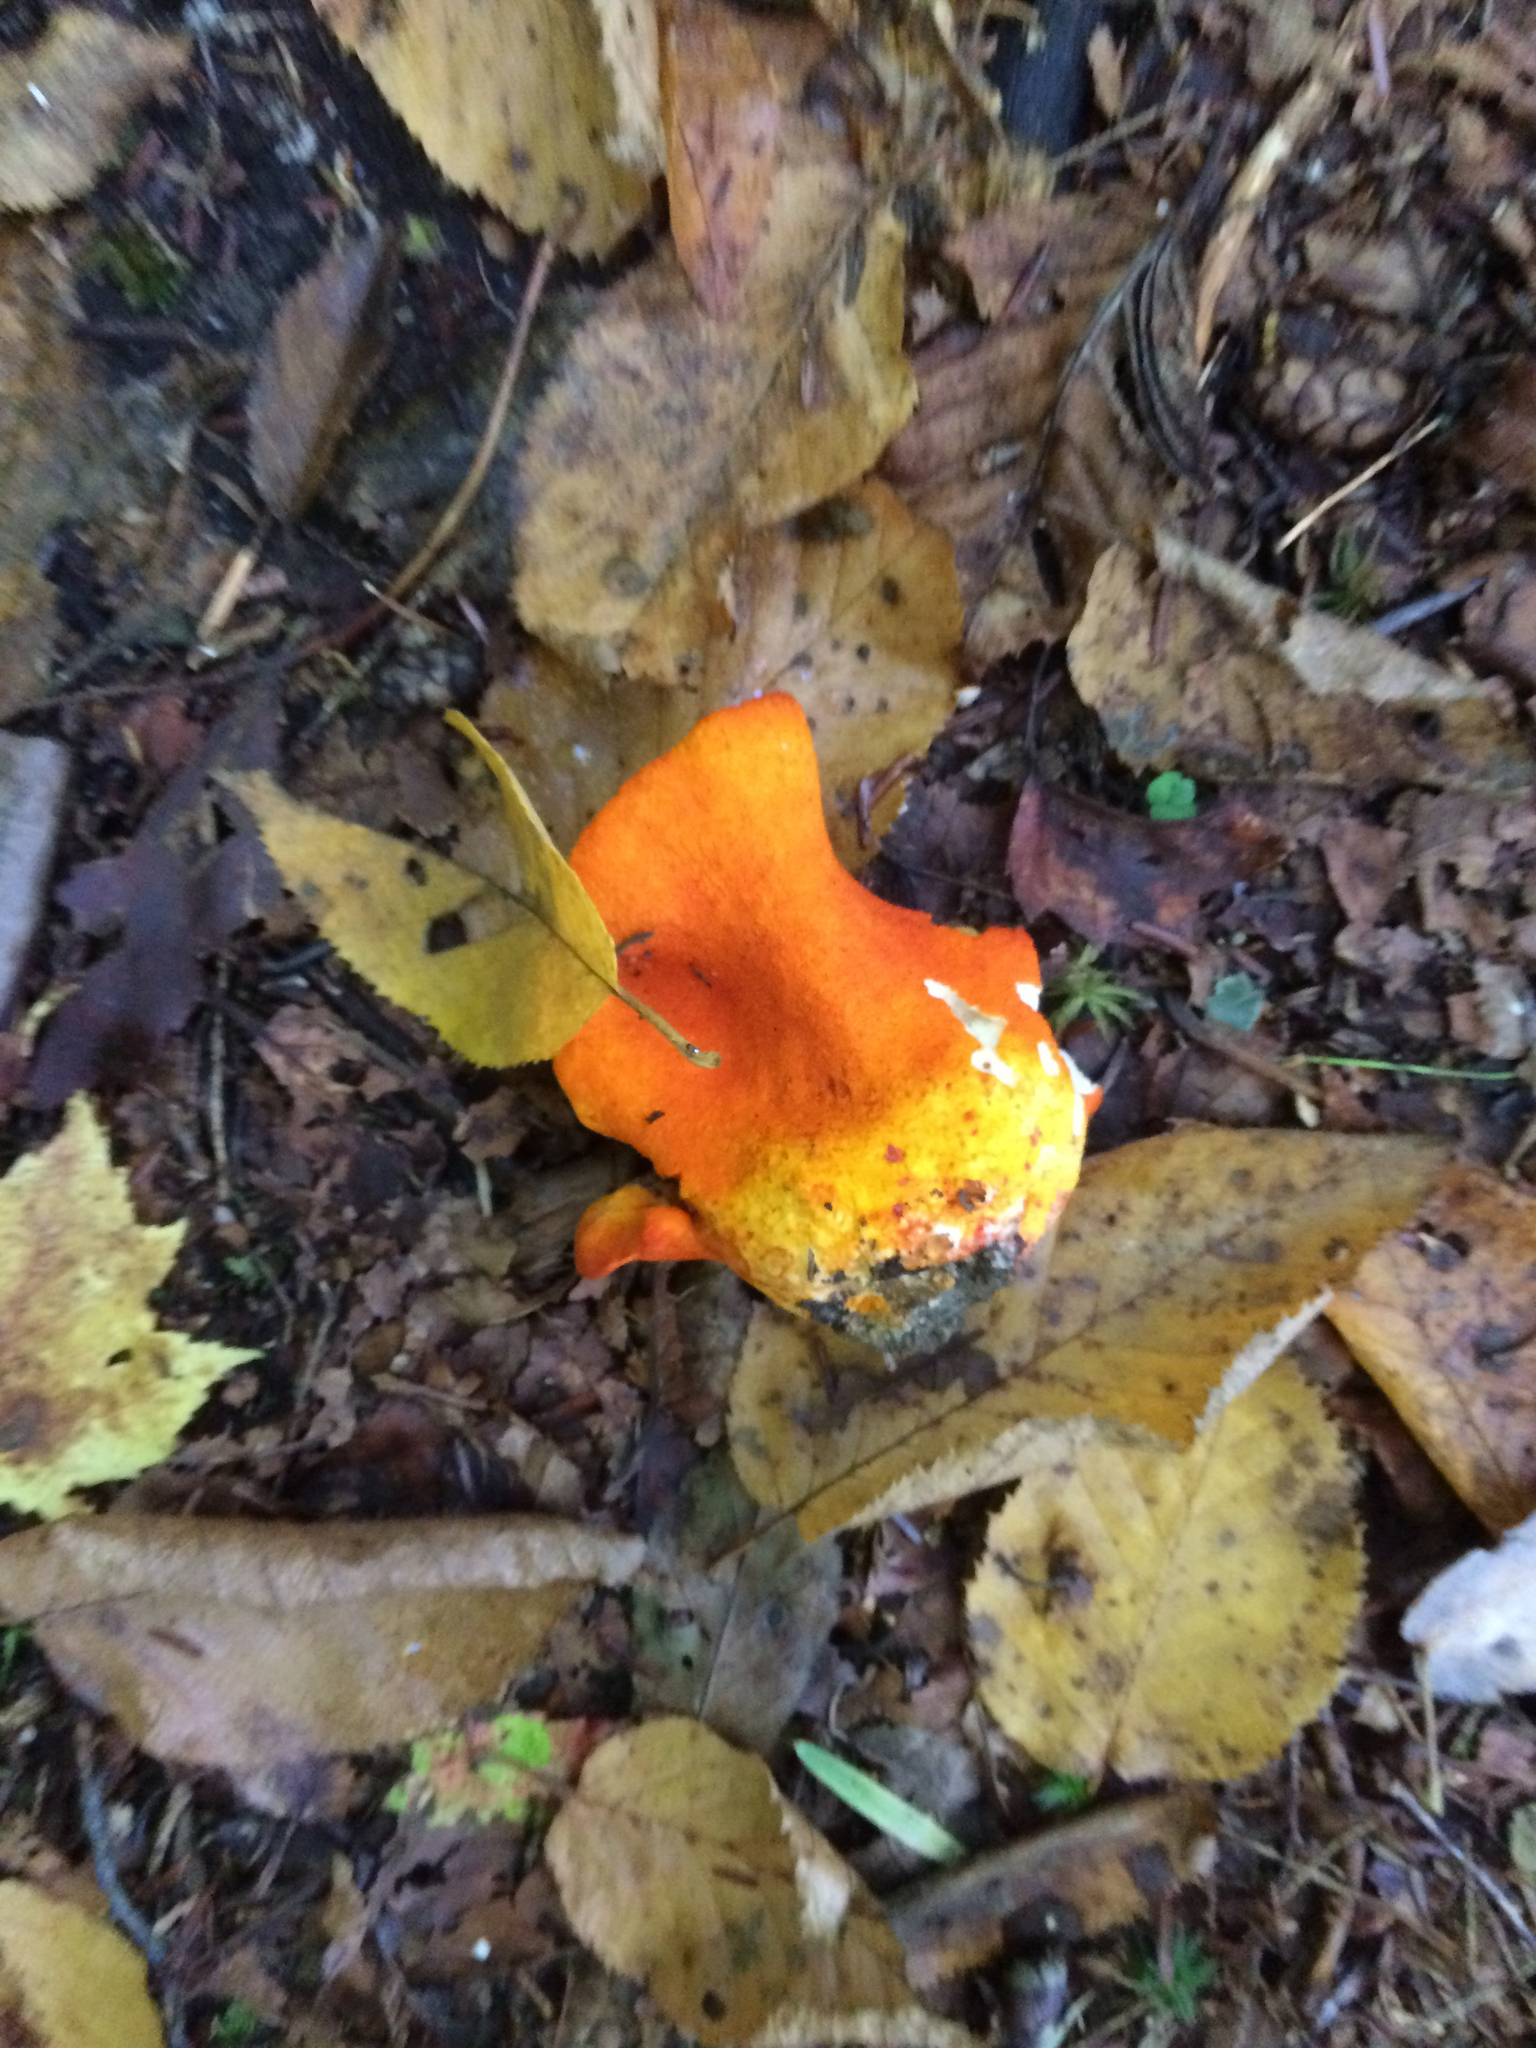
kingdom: Fungi
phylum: Ascomycota
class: Sordariomycetes
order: Hypocreales
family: Hypocreaceae
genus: Hypomyces
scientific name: Hypomyces lactifluorum
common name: Lobster mushroom
